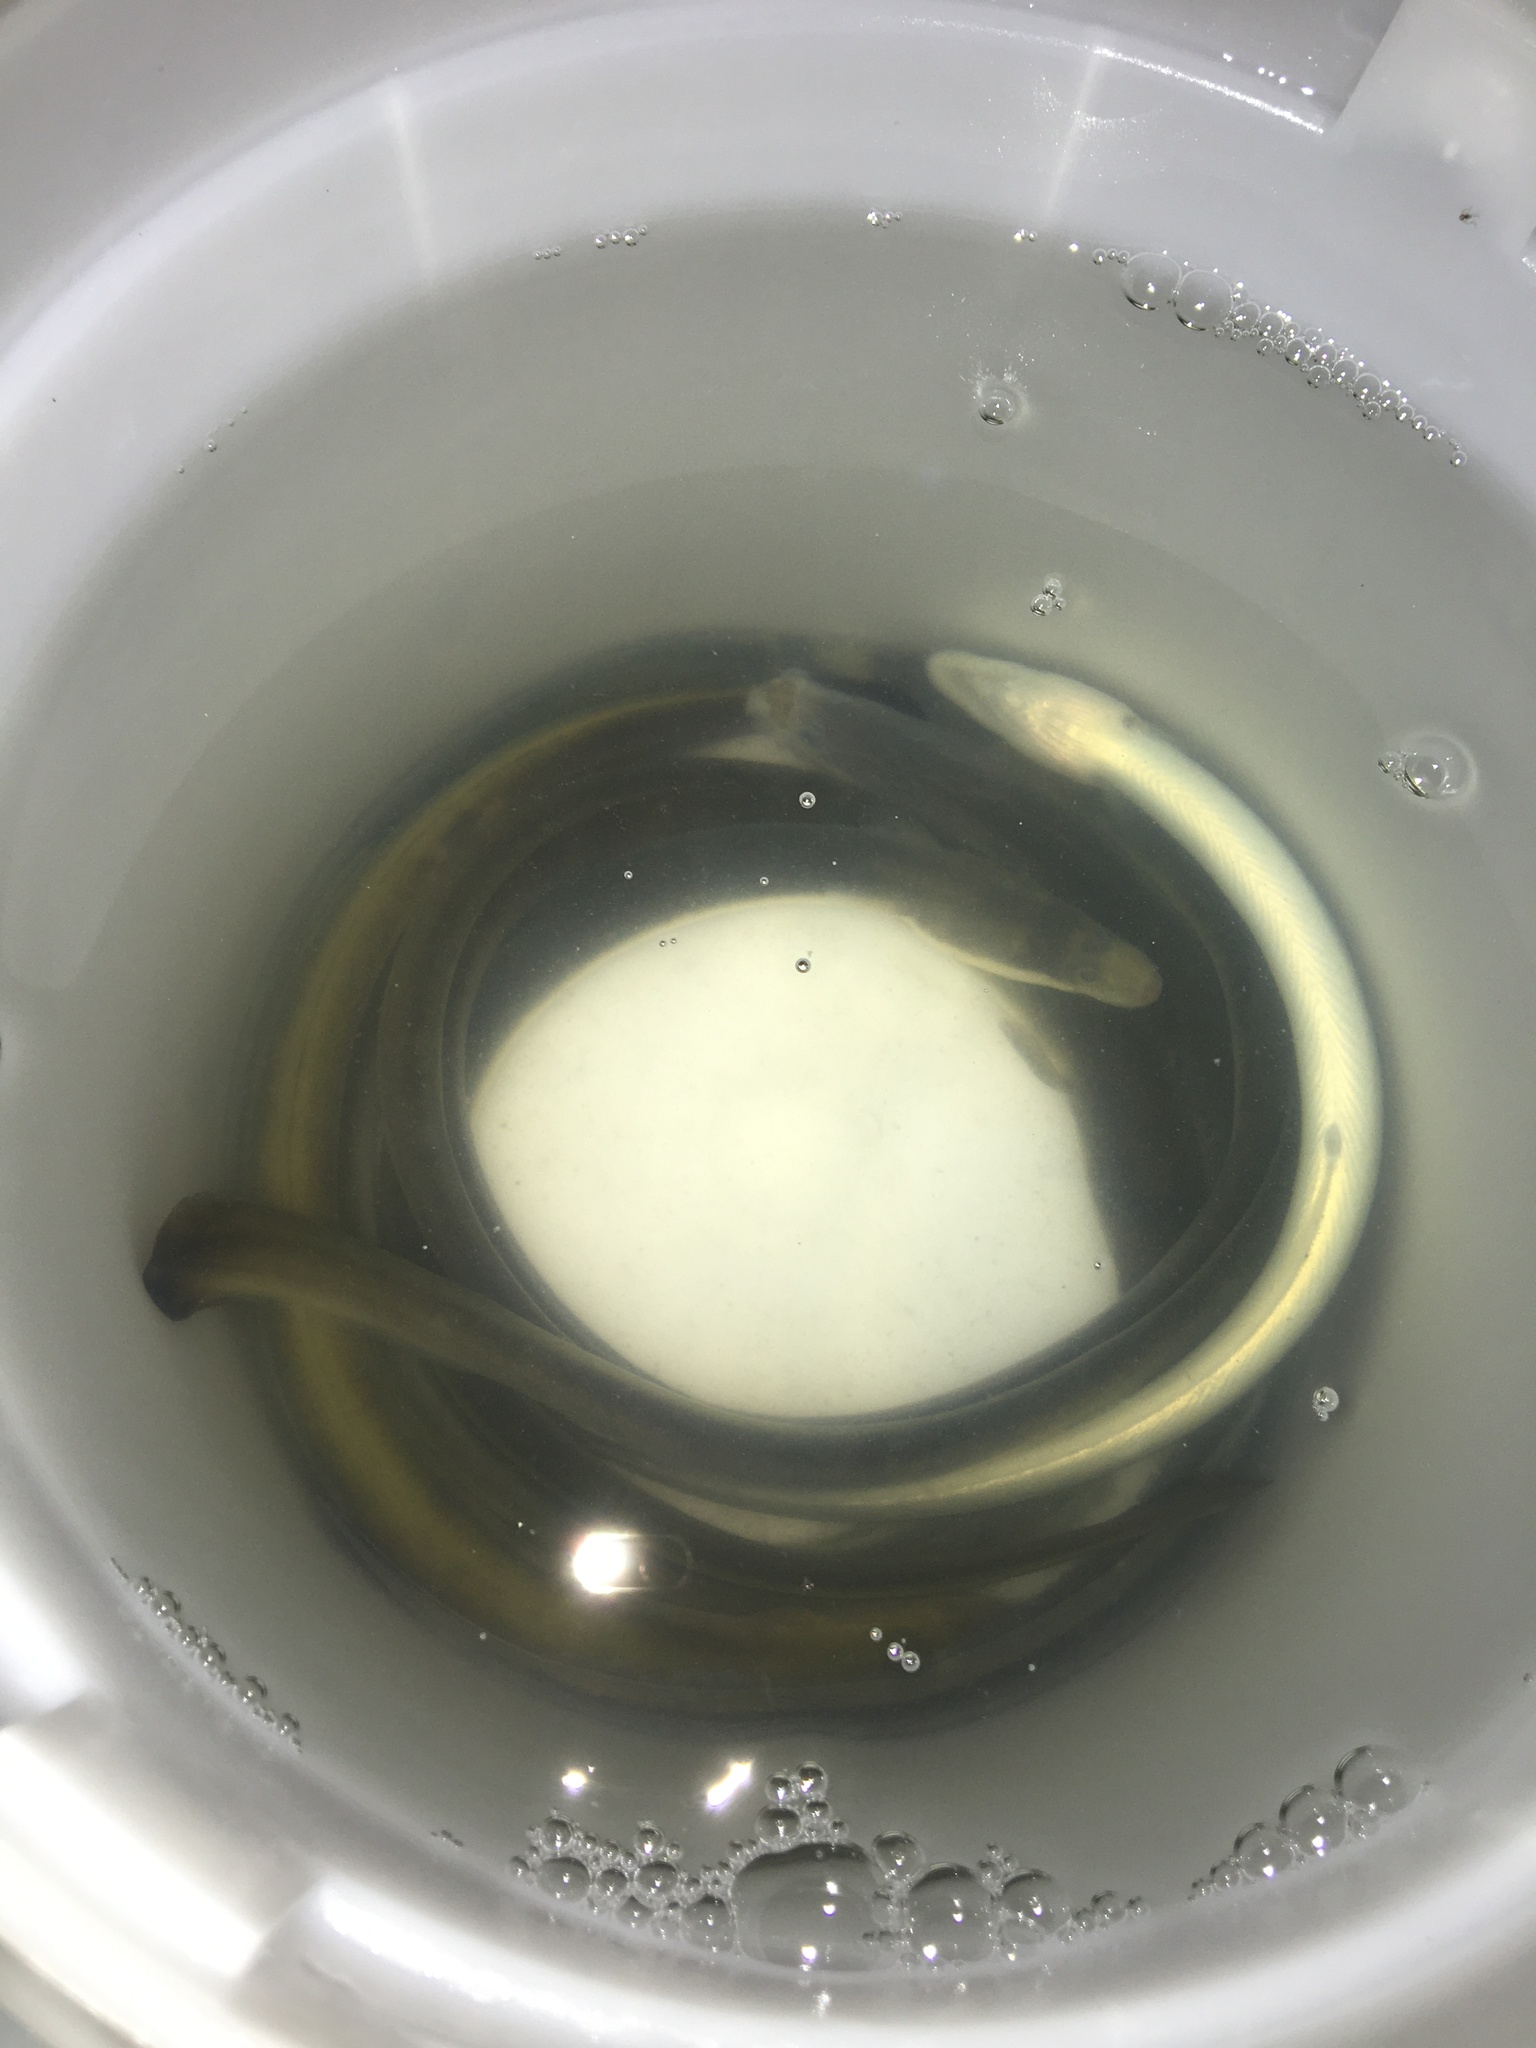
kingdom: Animalia
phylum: Chordata
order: Anguilliformes
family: Anguillidae
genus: Anguilla
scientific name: Anguilla rostrata
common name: American eel
